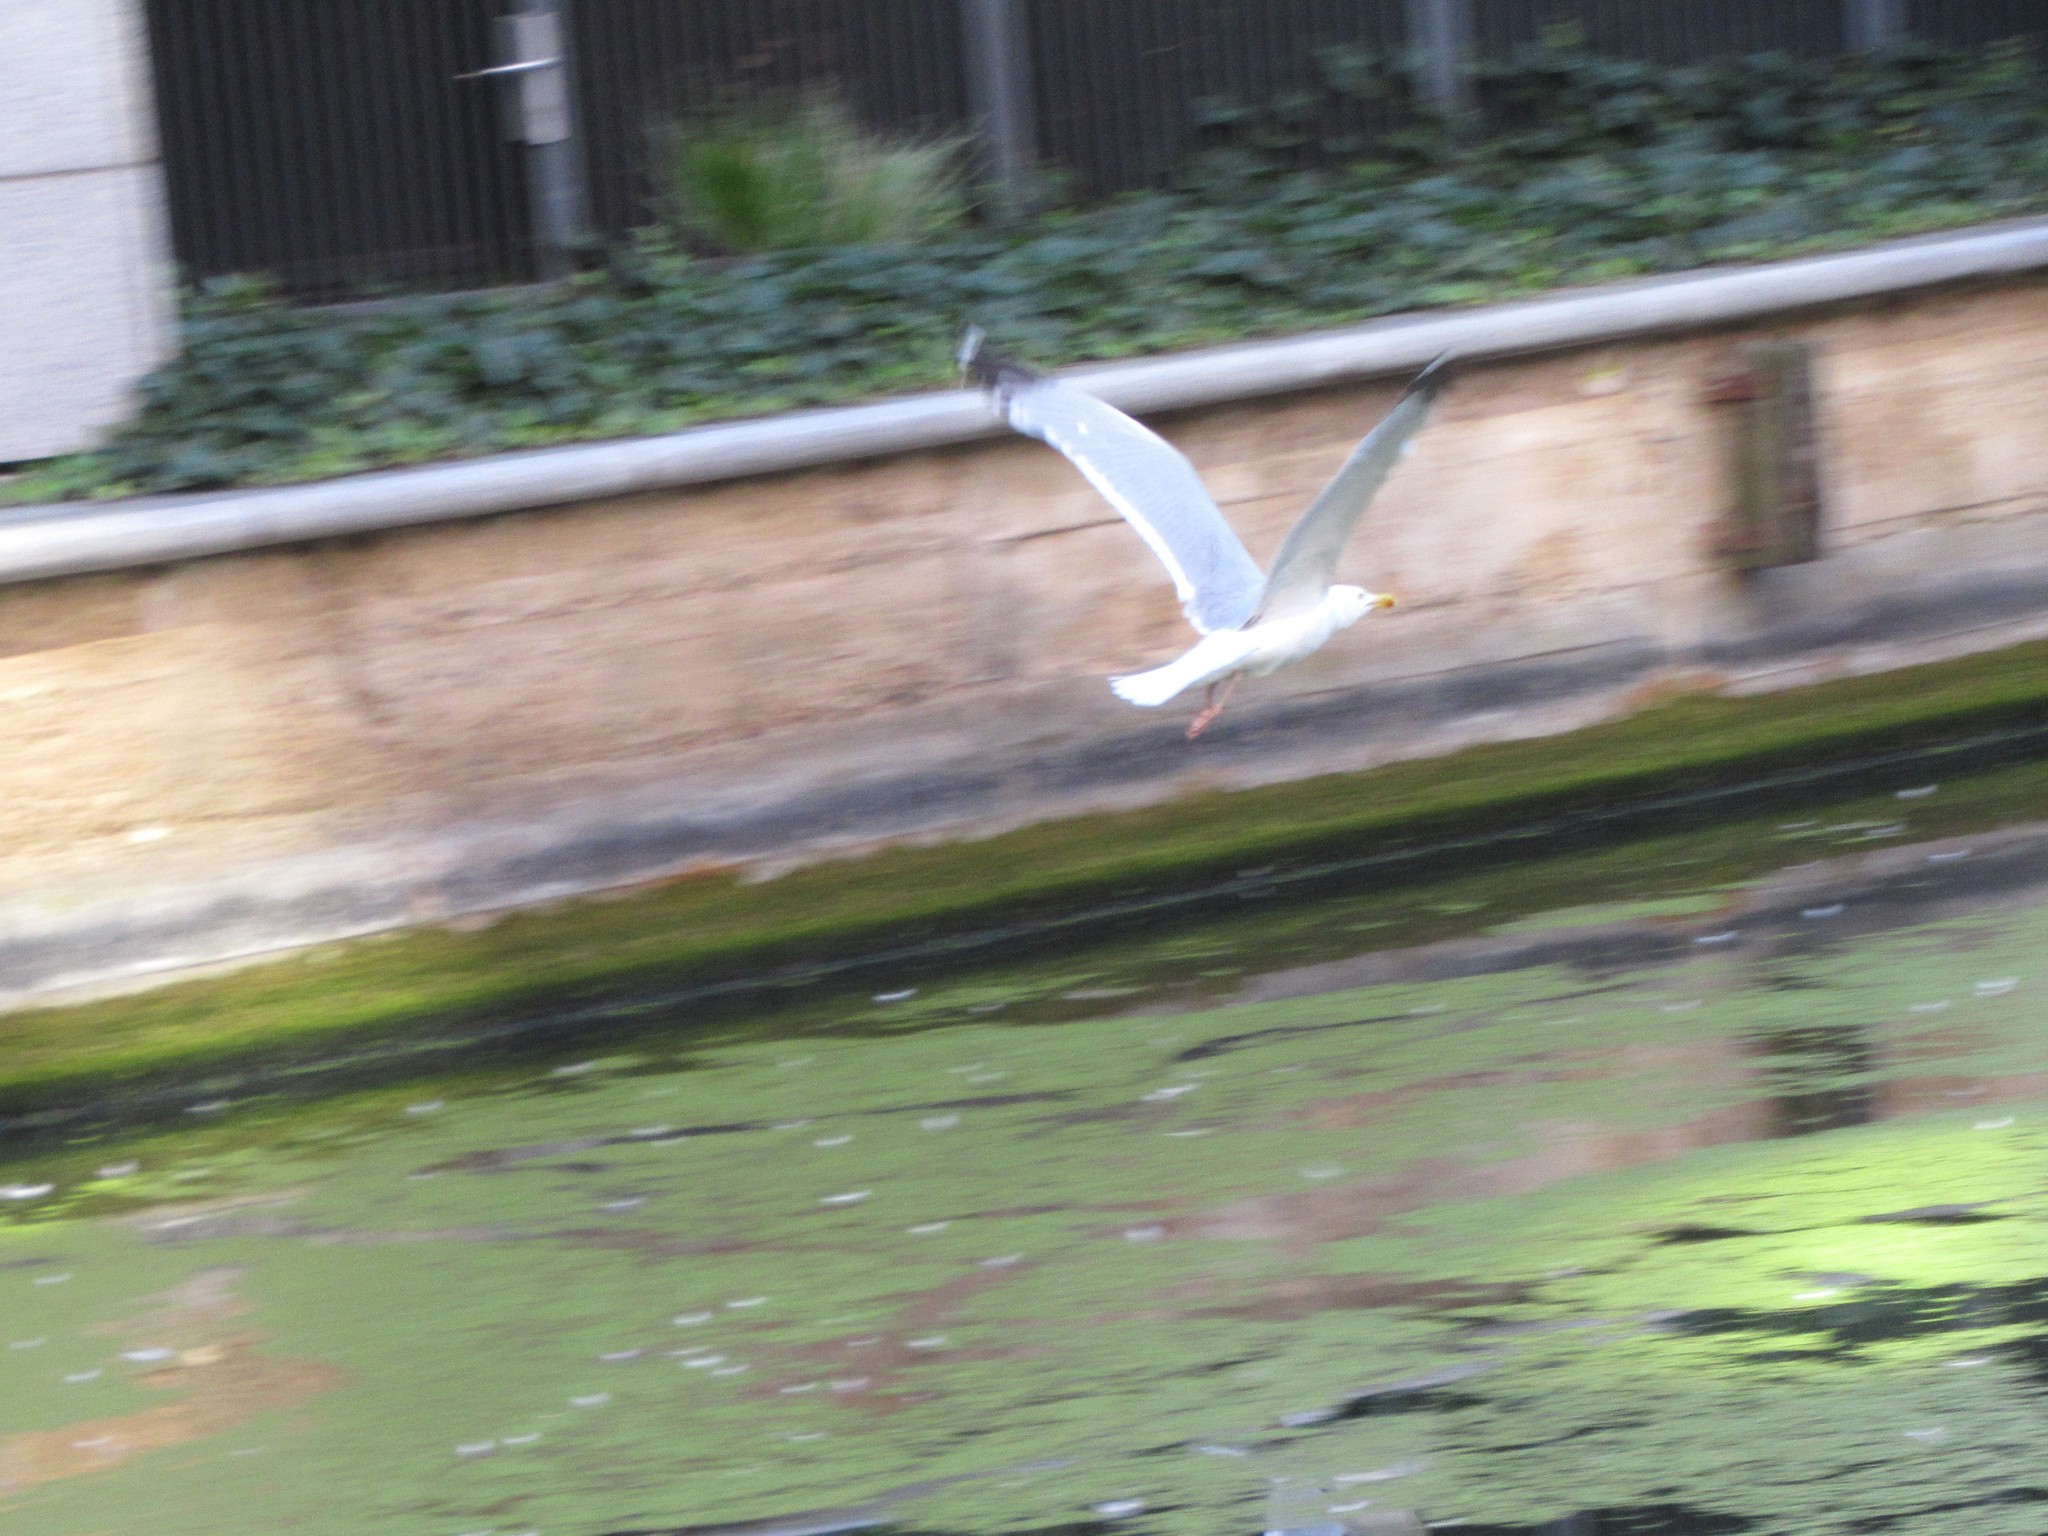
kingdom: Animalia
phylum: Chordata
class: Aves
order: Charadriiformes
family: Laridae
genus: Larus
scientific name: Larus argentatus
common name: Herring gull
